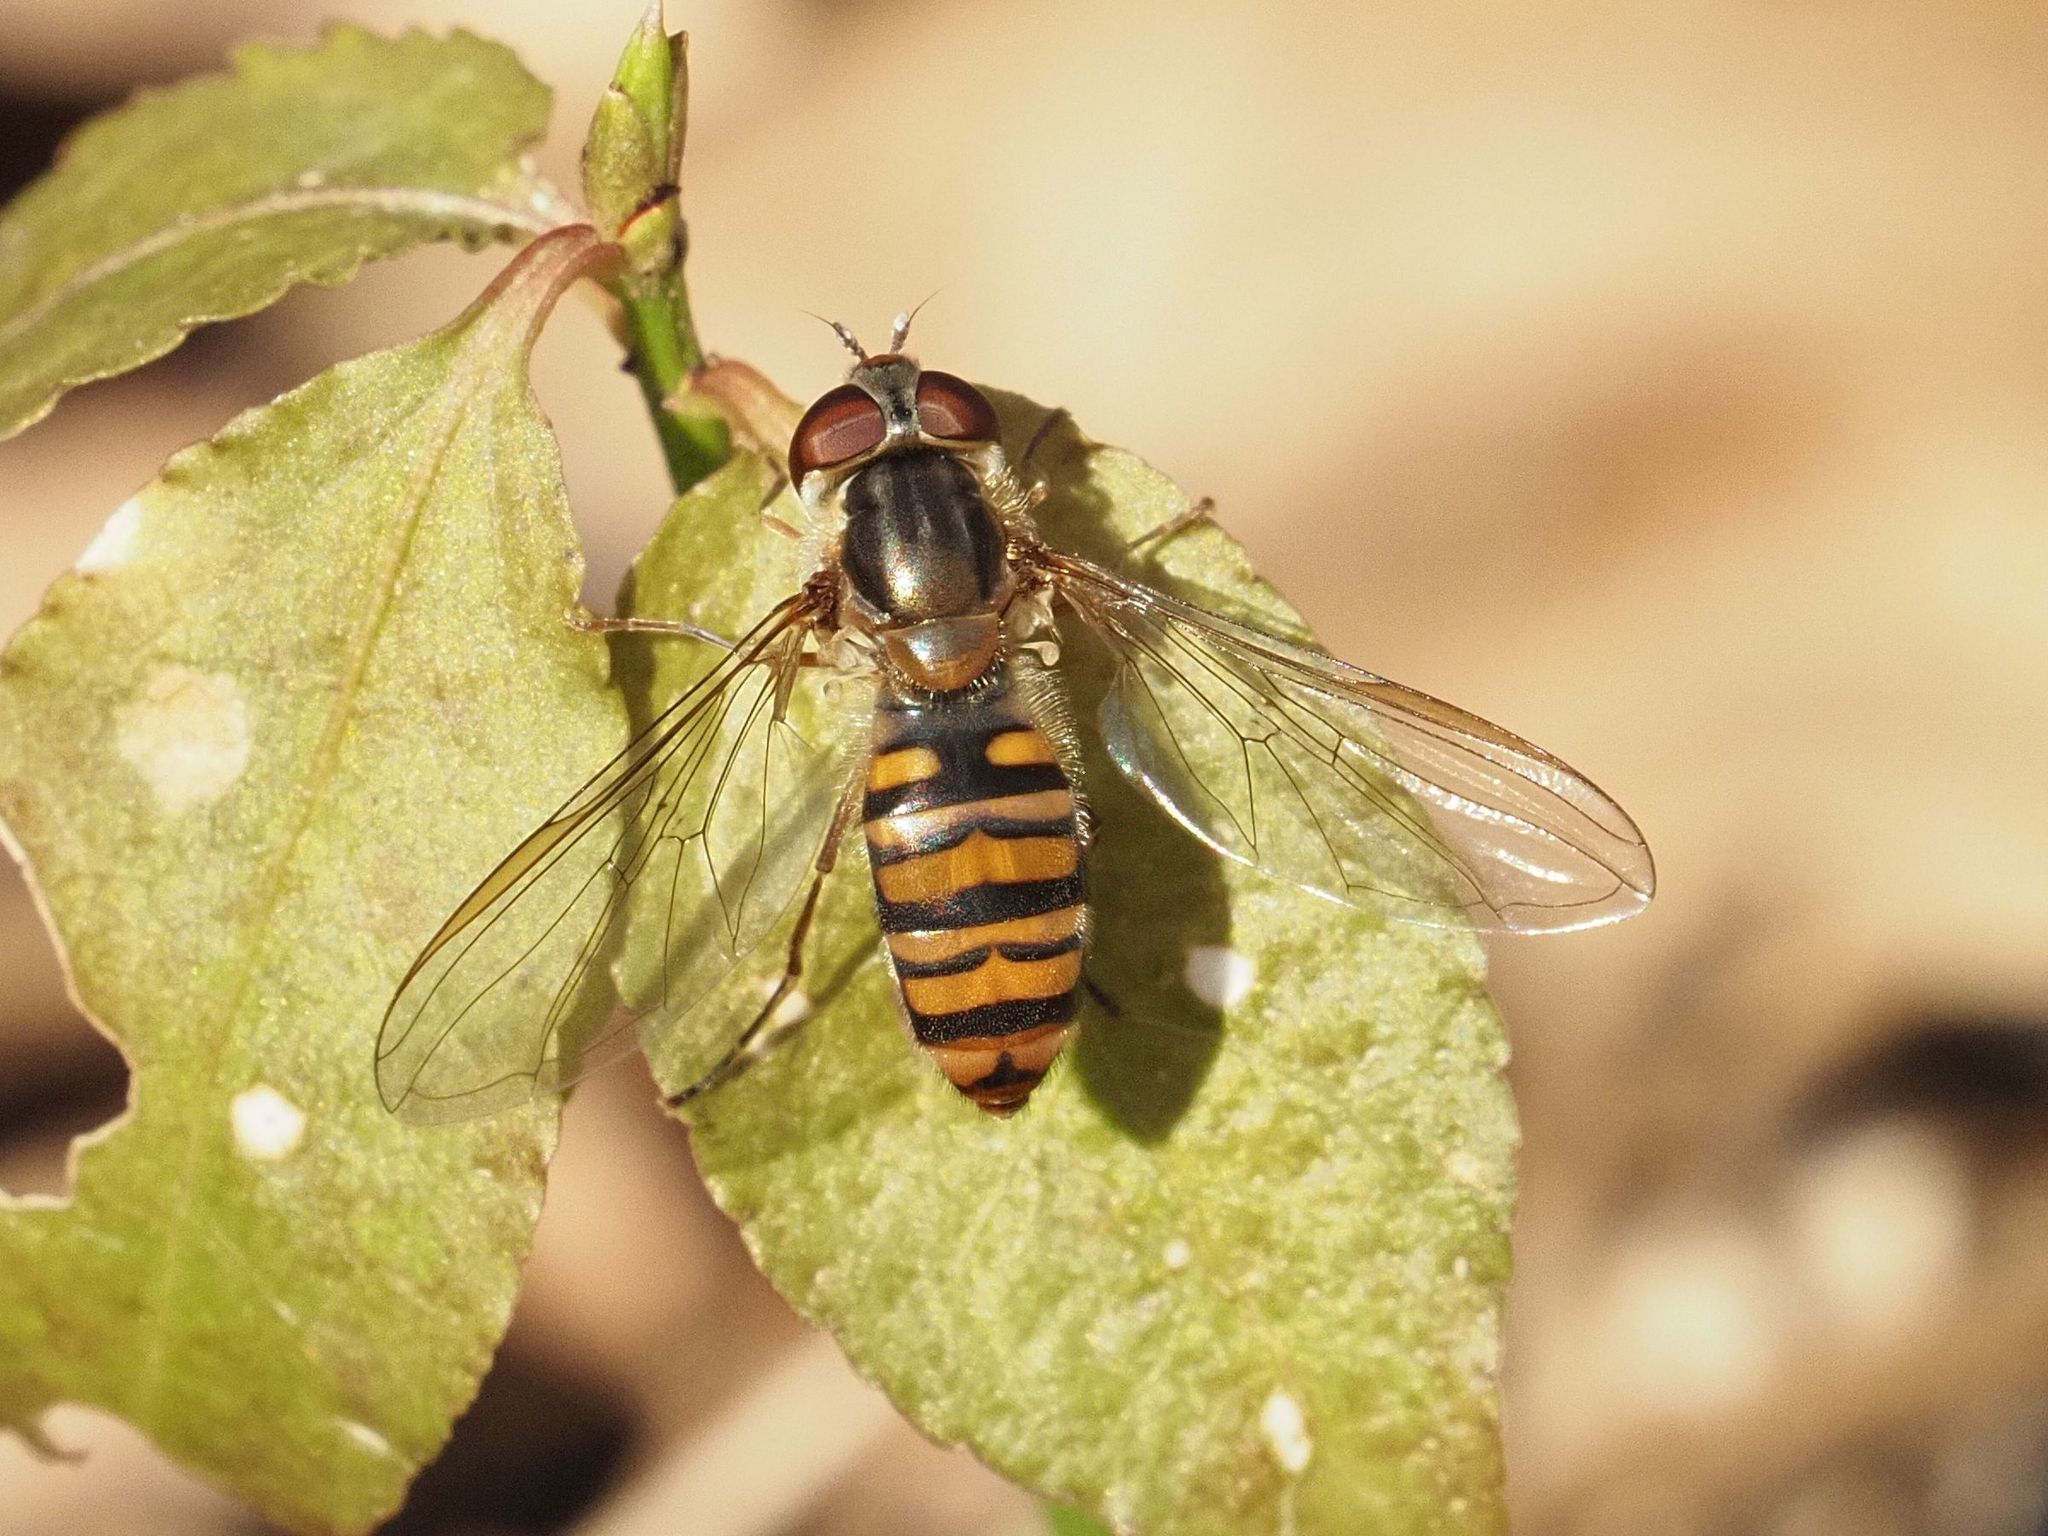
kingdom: Animalia
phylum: Arthropoda
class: Insecta
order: Diptera
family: Syrphidae
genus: Episyrphus
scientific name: Episyrphus balteatus
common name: Marmalade hoverfly
